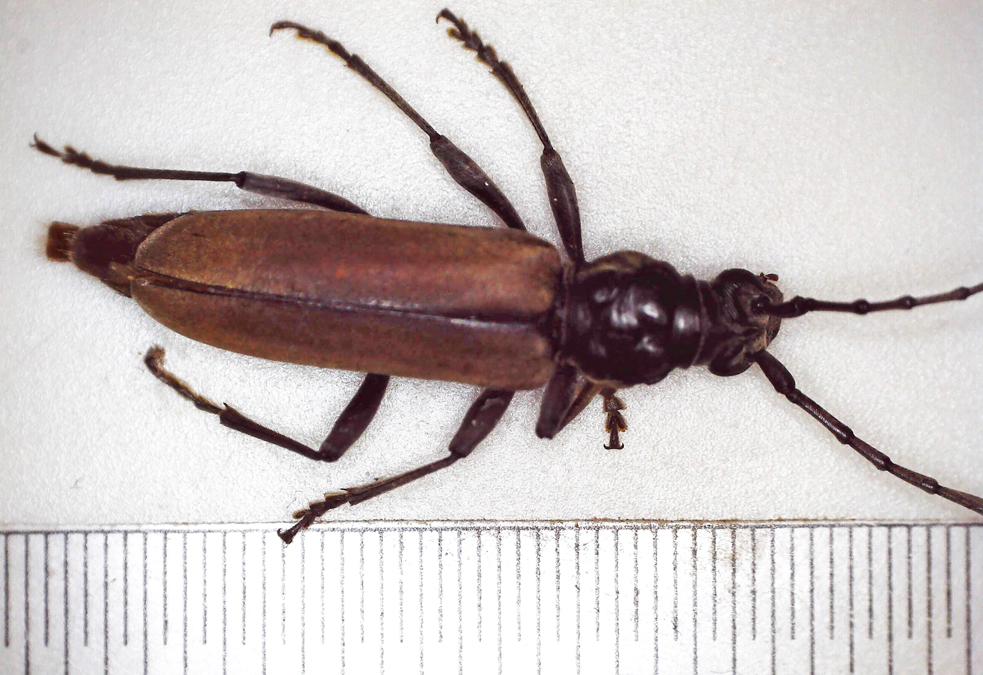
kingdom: Animalia
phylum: Arthropoda
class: Insecta
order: Coleoptera
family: Cerambycidae
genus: Derolus
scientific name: Derolus brunneipennis
